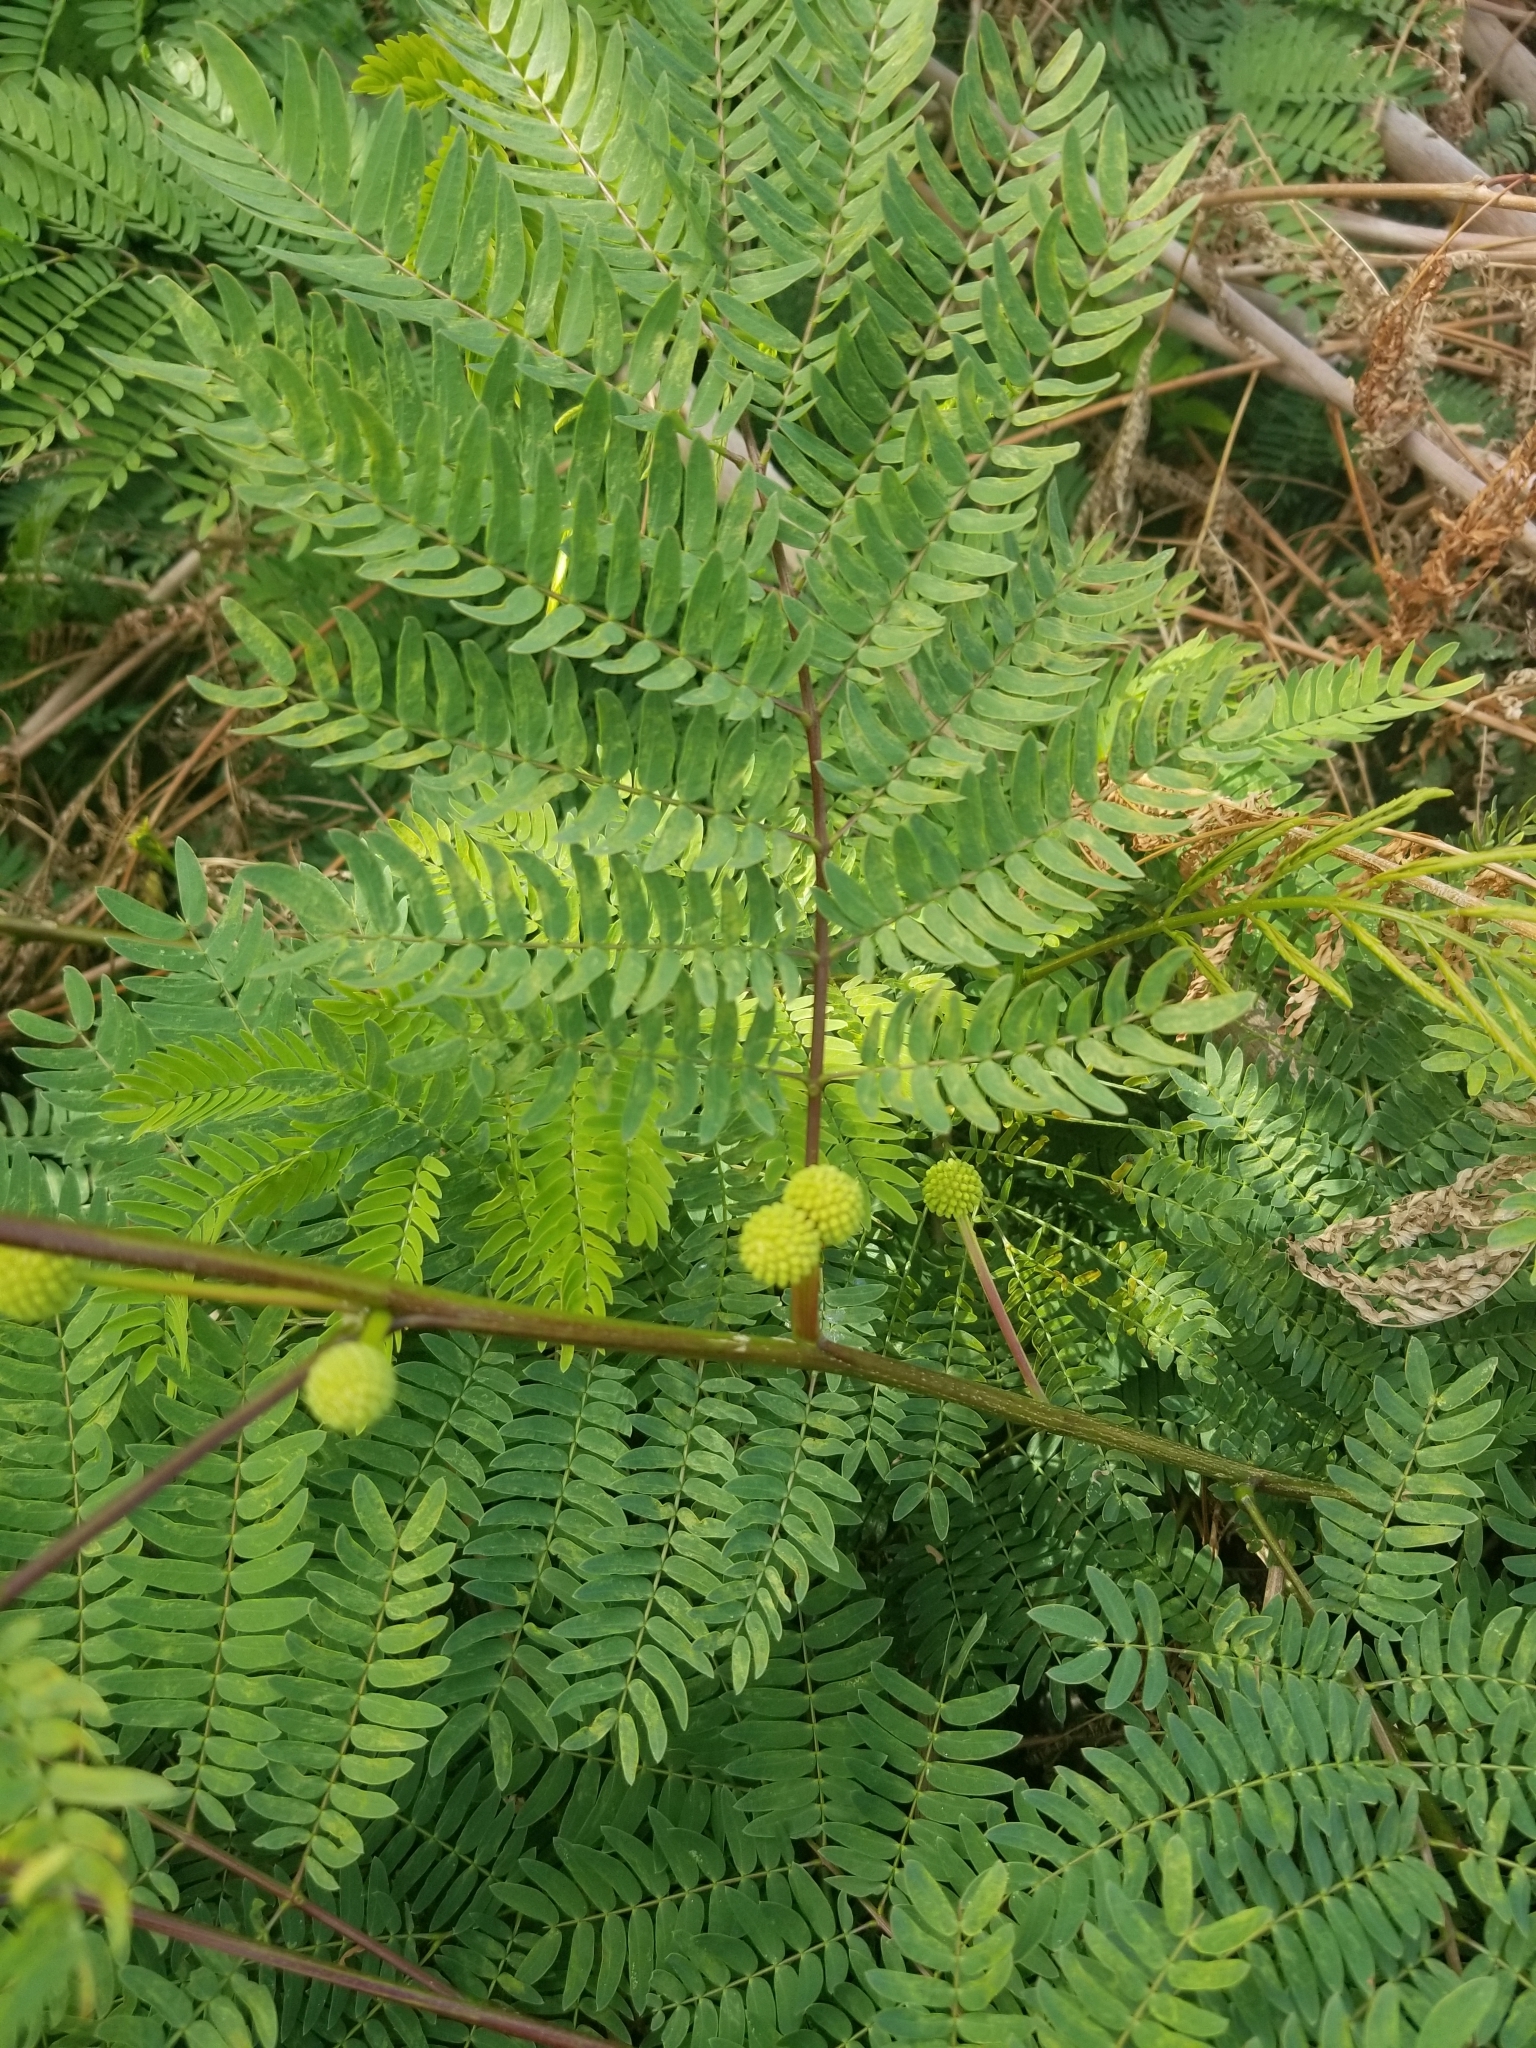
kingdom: Plantae
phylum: Tracheophyta
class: Magnoliopsida
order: Fabales
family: Fabaceae
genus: Leucaena
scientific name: Leucaena leucocephala
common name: White leadtree
